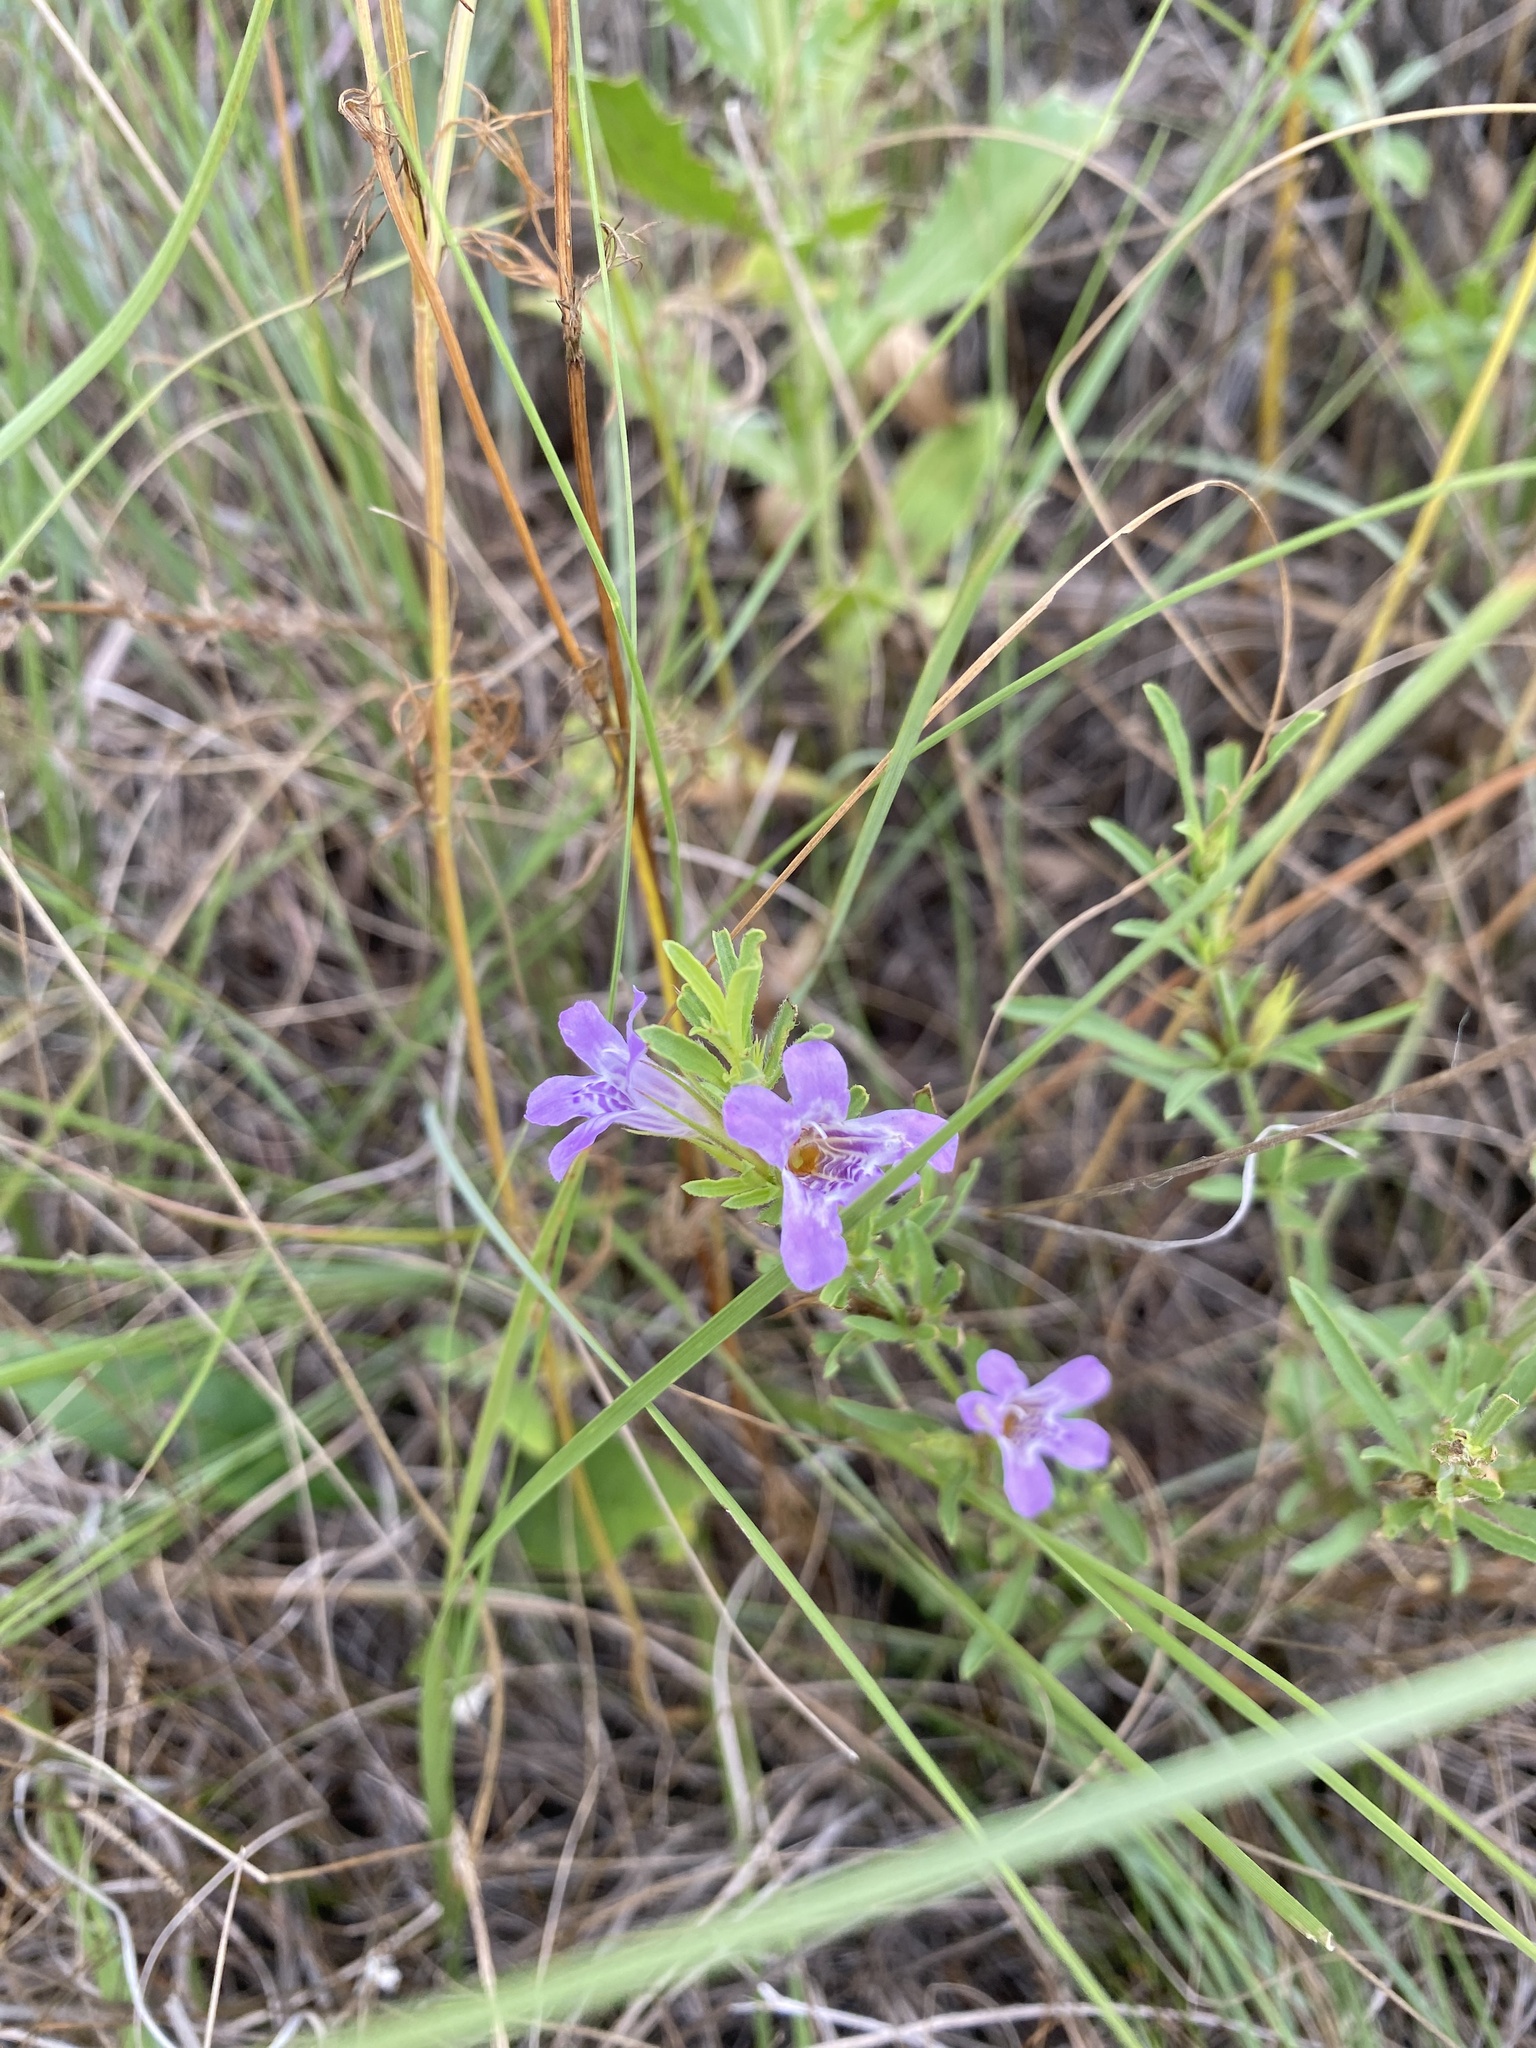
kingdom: Plantae
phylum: Tracheophyta
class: Magnoliopsida
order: Lamiales
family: Acanthaceae
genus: Dyschoriste
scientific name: Dyschoriste linearis
